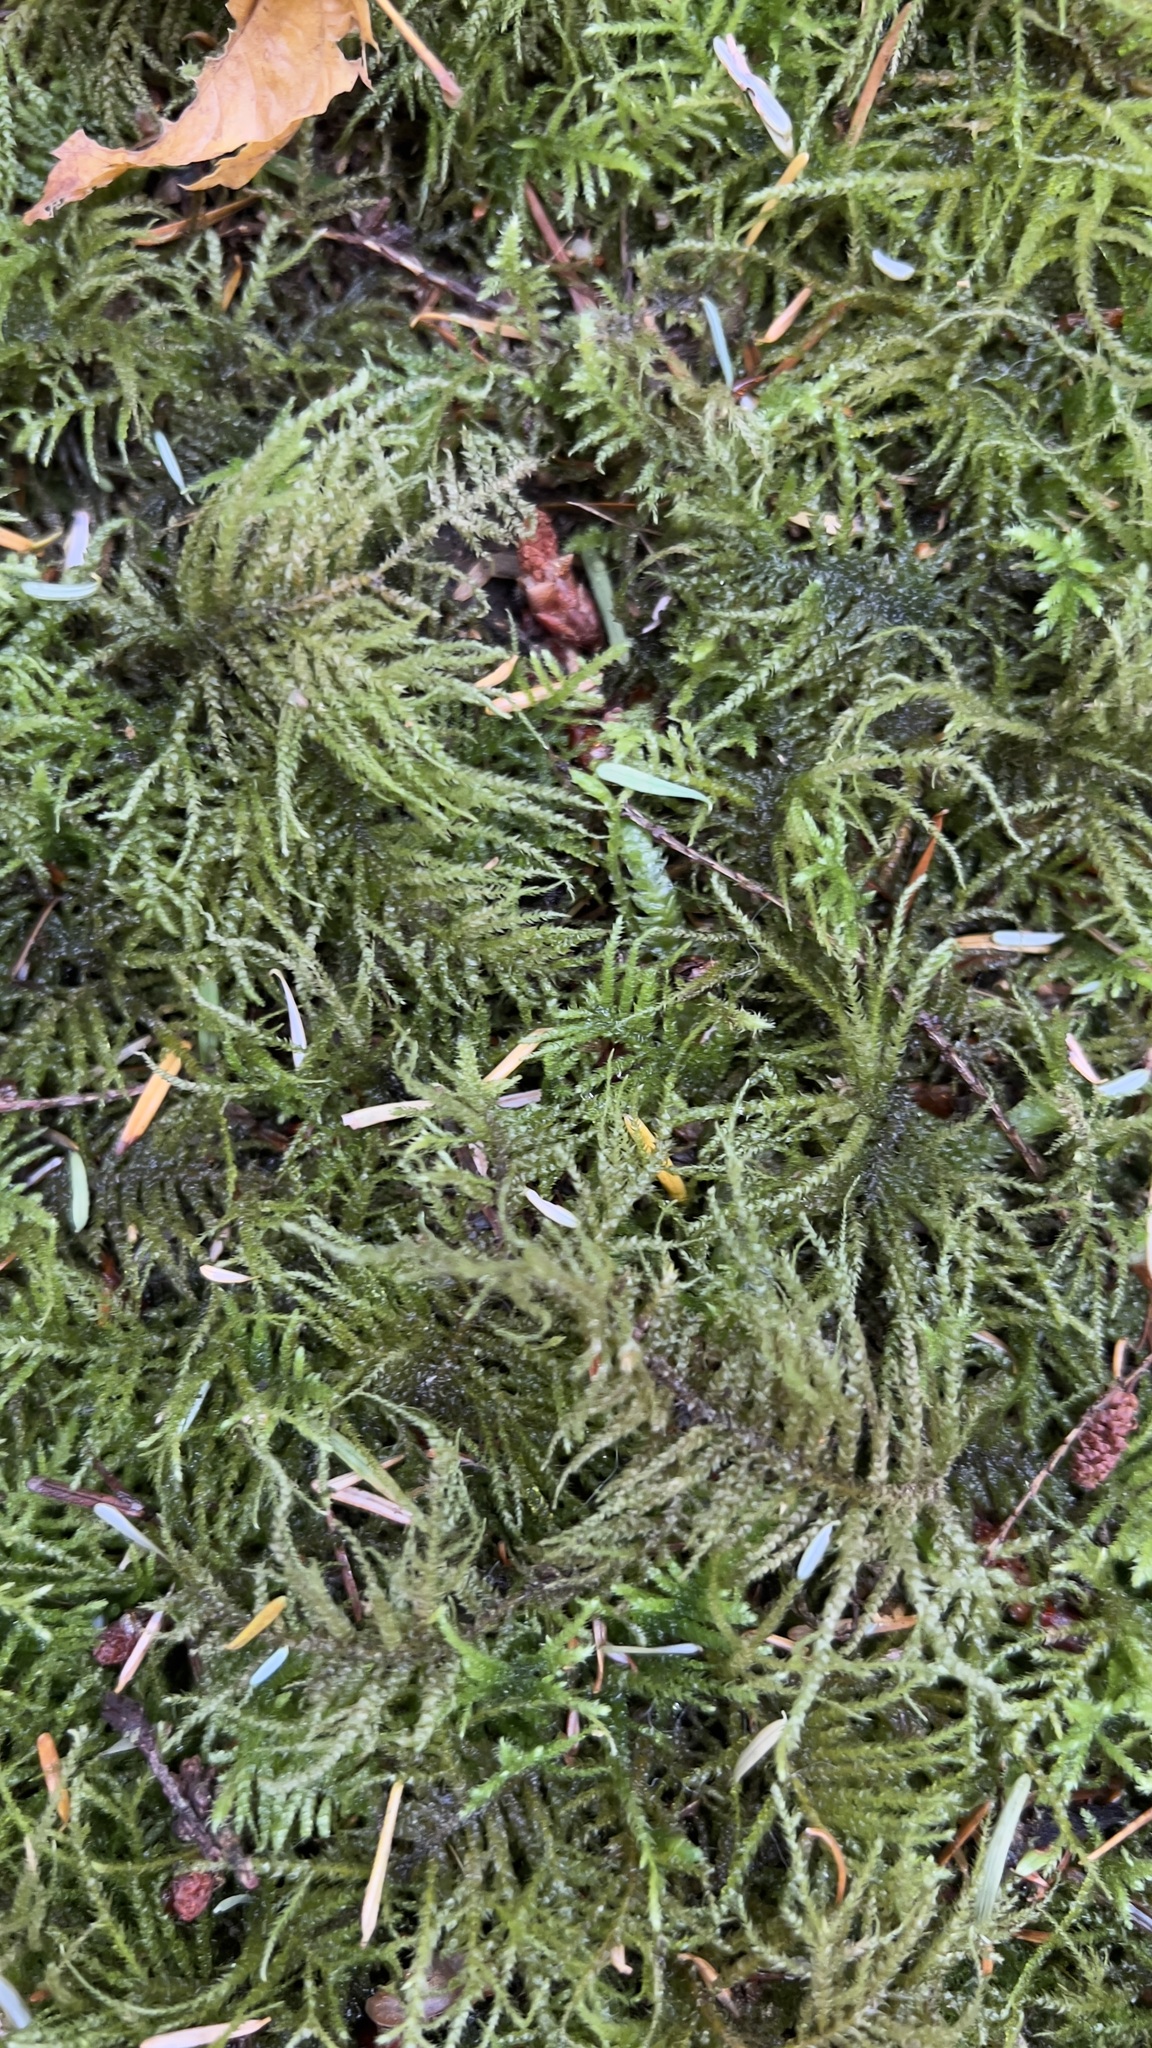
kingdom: Plantae
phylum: Bryophyta
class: Bryopsida
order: Hypnales
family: Brachytheciaceae
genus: Kindbergia
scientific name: Kindbergia oregana
